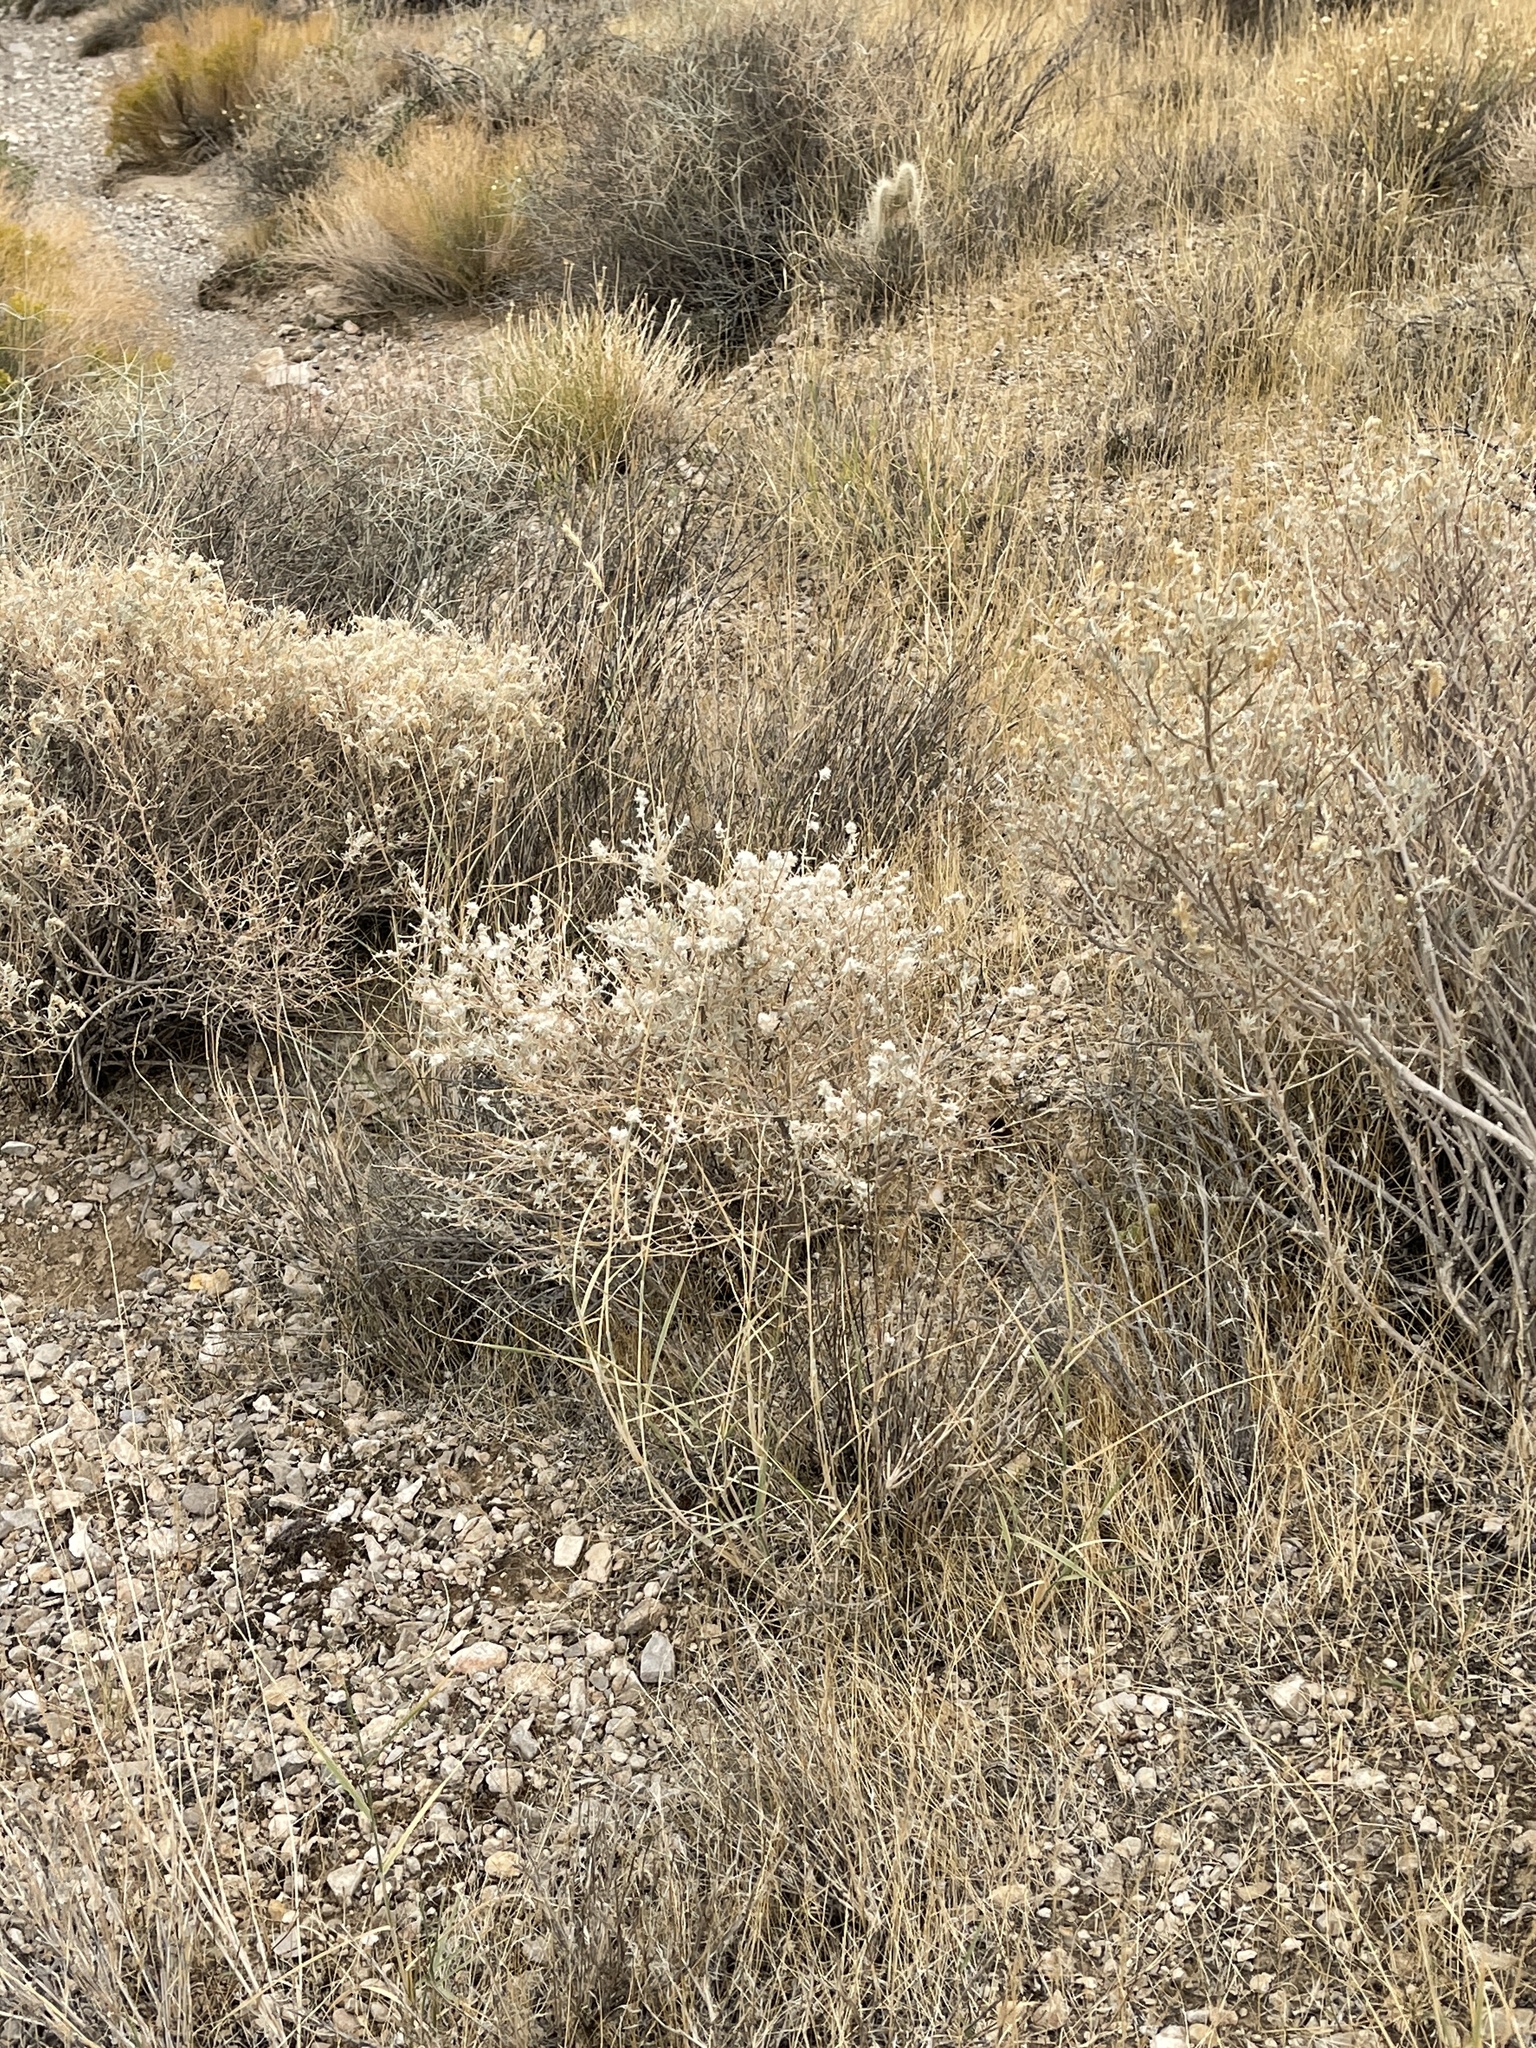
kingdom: Plantae
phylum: Tracheophyta
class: Magnoliopsida
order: Caryophyllales
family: Amaranthaceae
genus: Krascheninnikovia
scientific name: Krascheninnikovia lanata
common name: Winterfat
